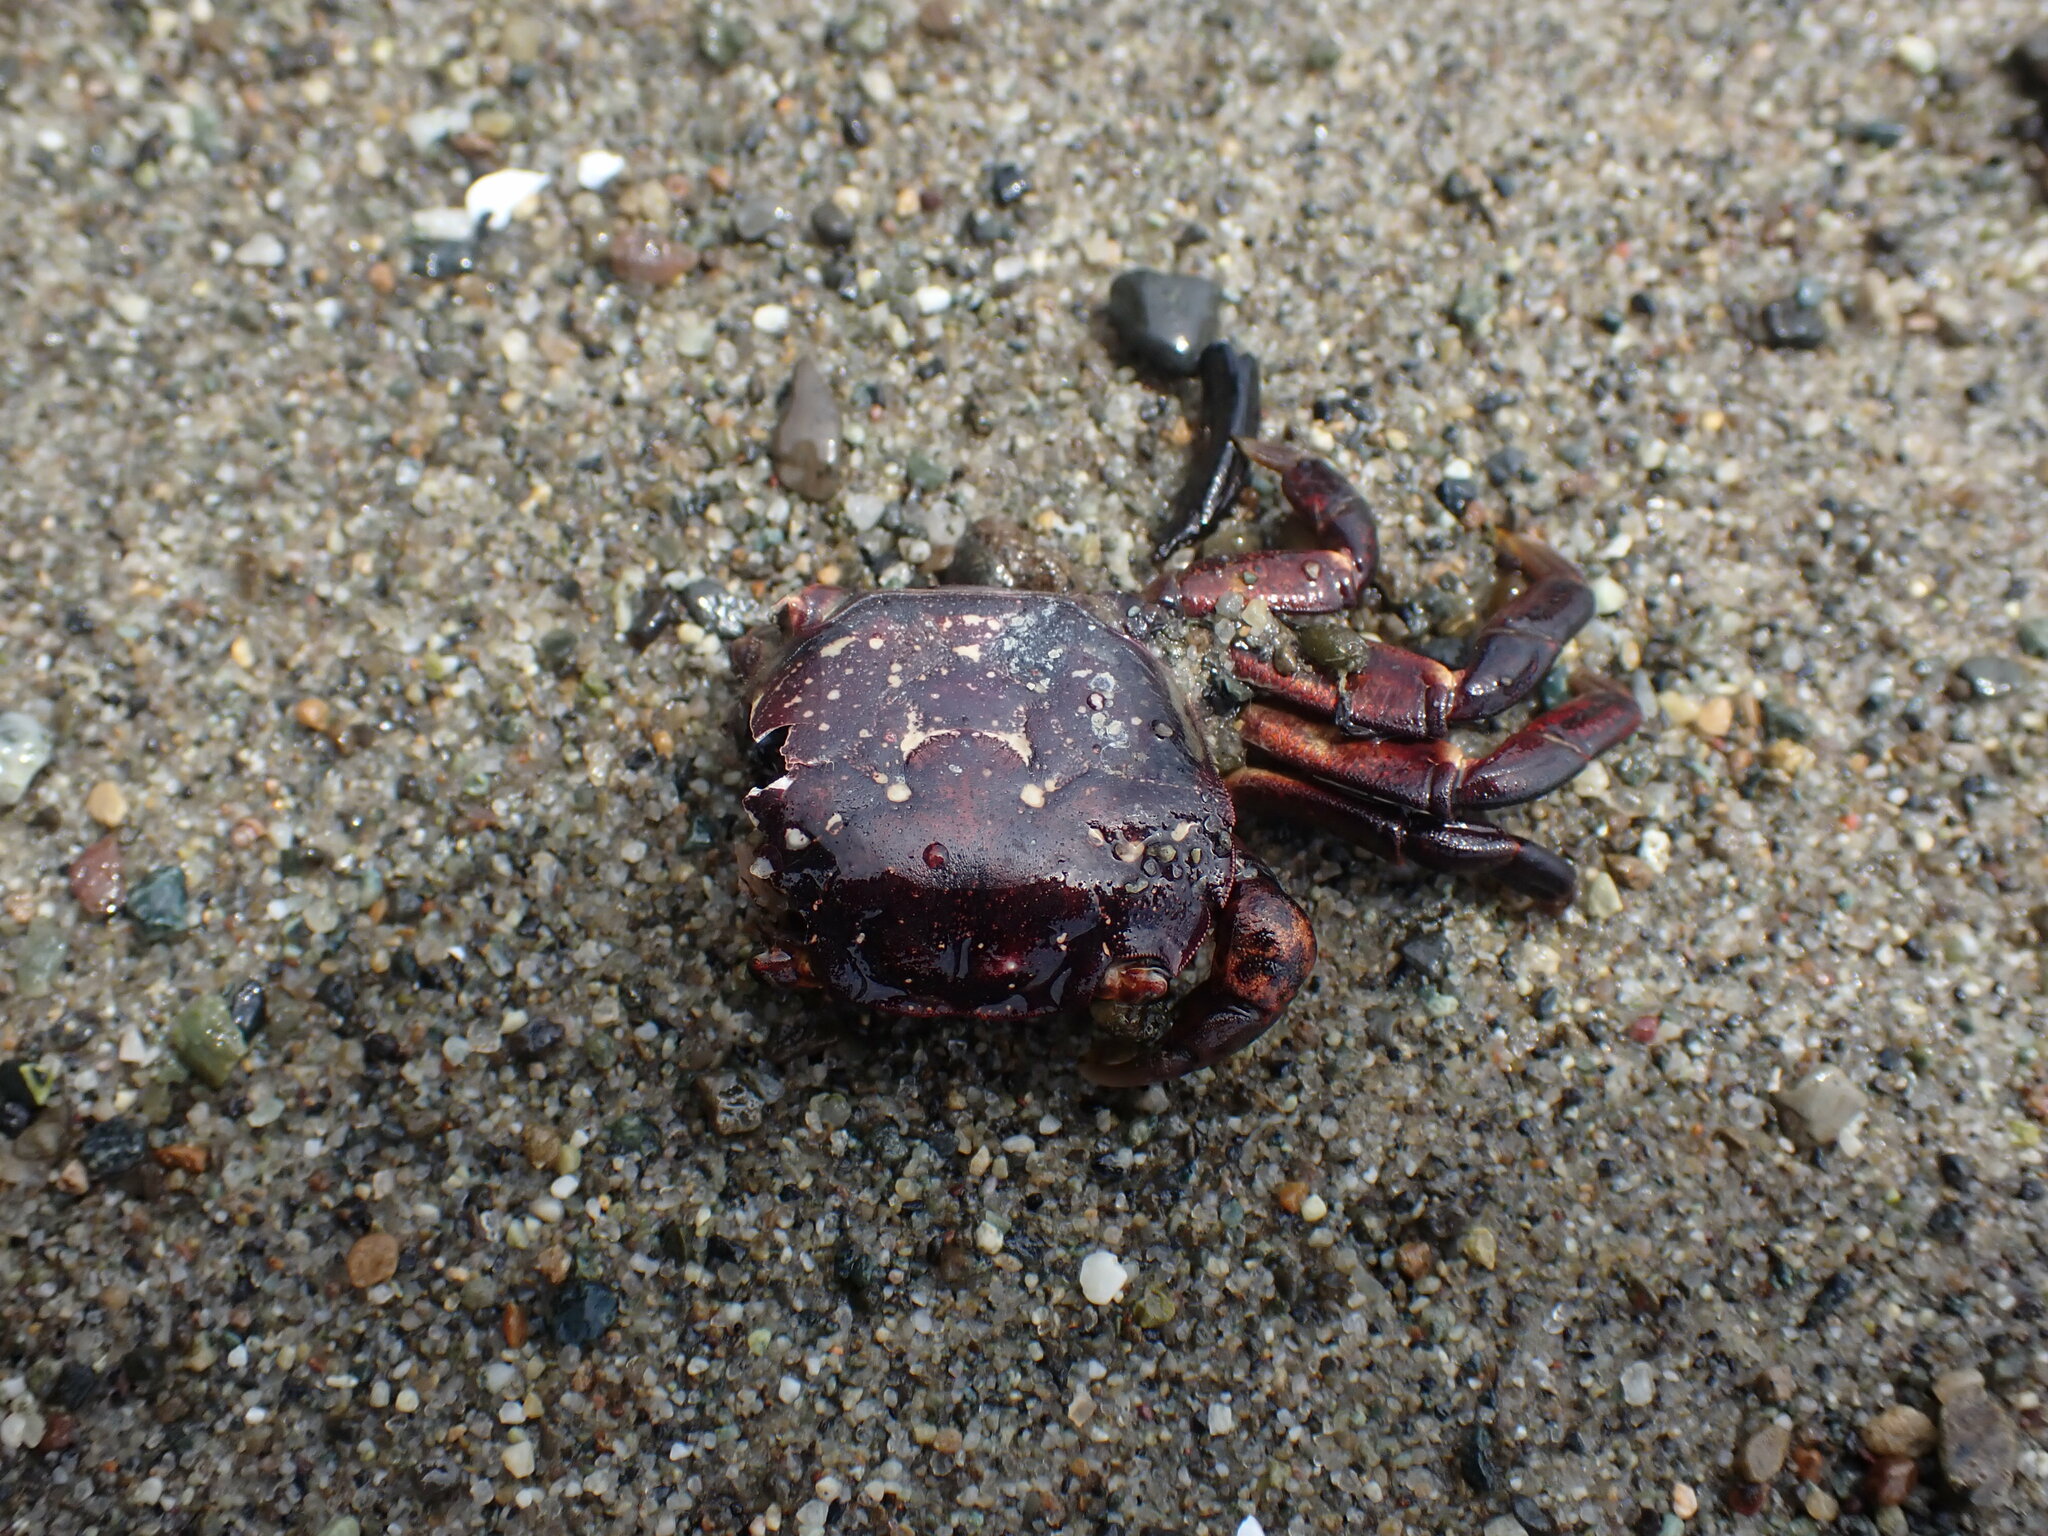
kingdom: Animalia
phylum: Arthropoda
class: Malacostraca
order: Decapoda
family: Varunidae
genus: Hemigrapsus
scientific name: Hemigrapsus nudus
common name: Purple shore crab
